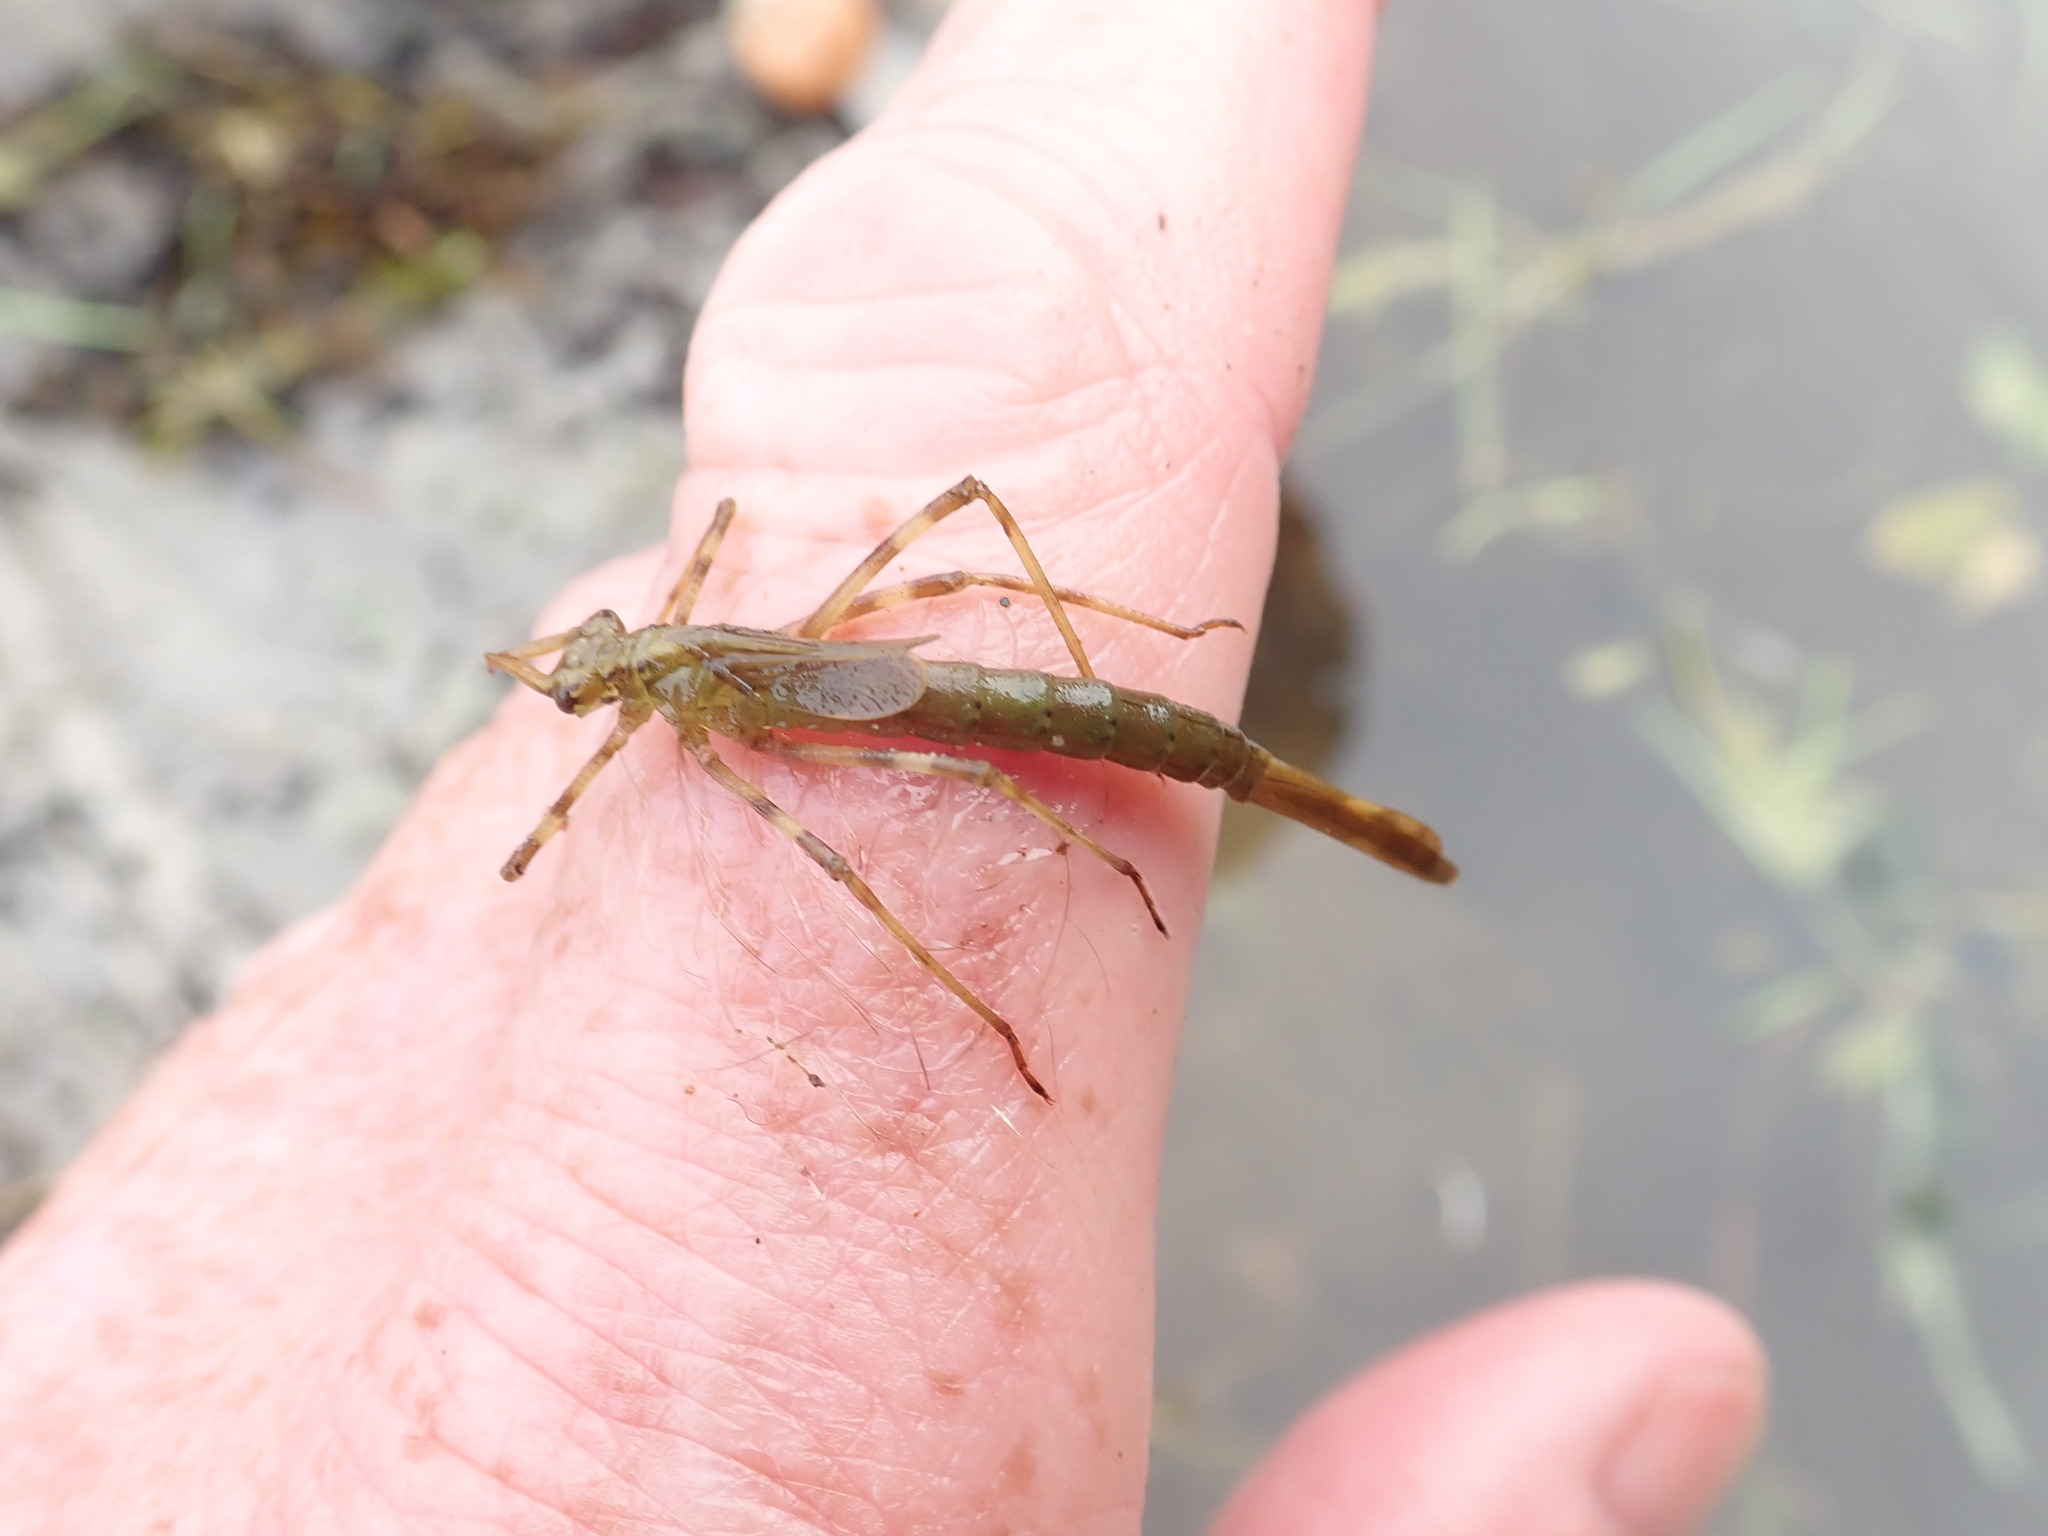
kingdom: Animalia
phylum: Arthropoda
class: Insecta
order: Odonata
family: Calopterygidae
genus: Calopteryx
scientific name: Calopteryx maculata
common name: Ebony jewelwing
